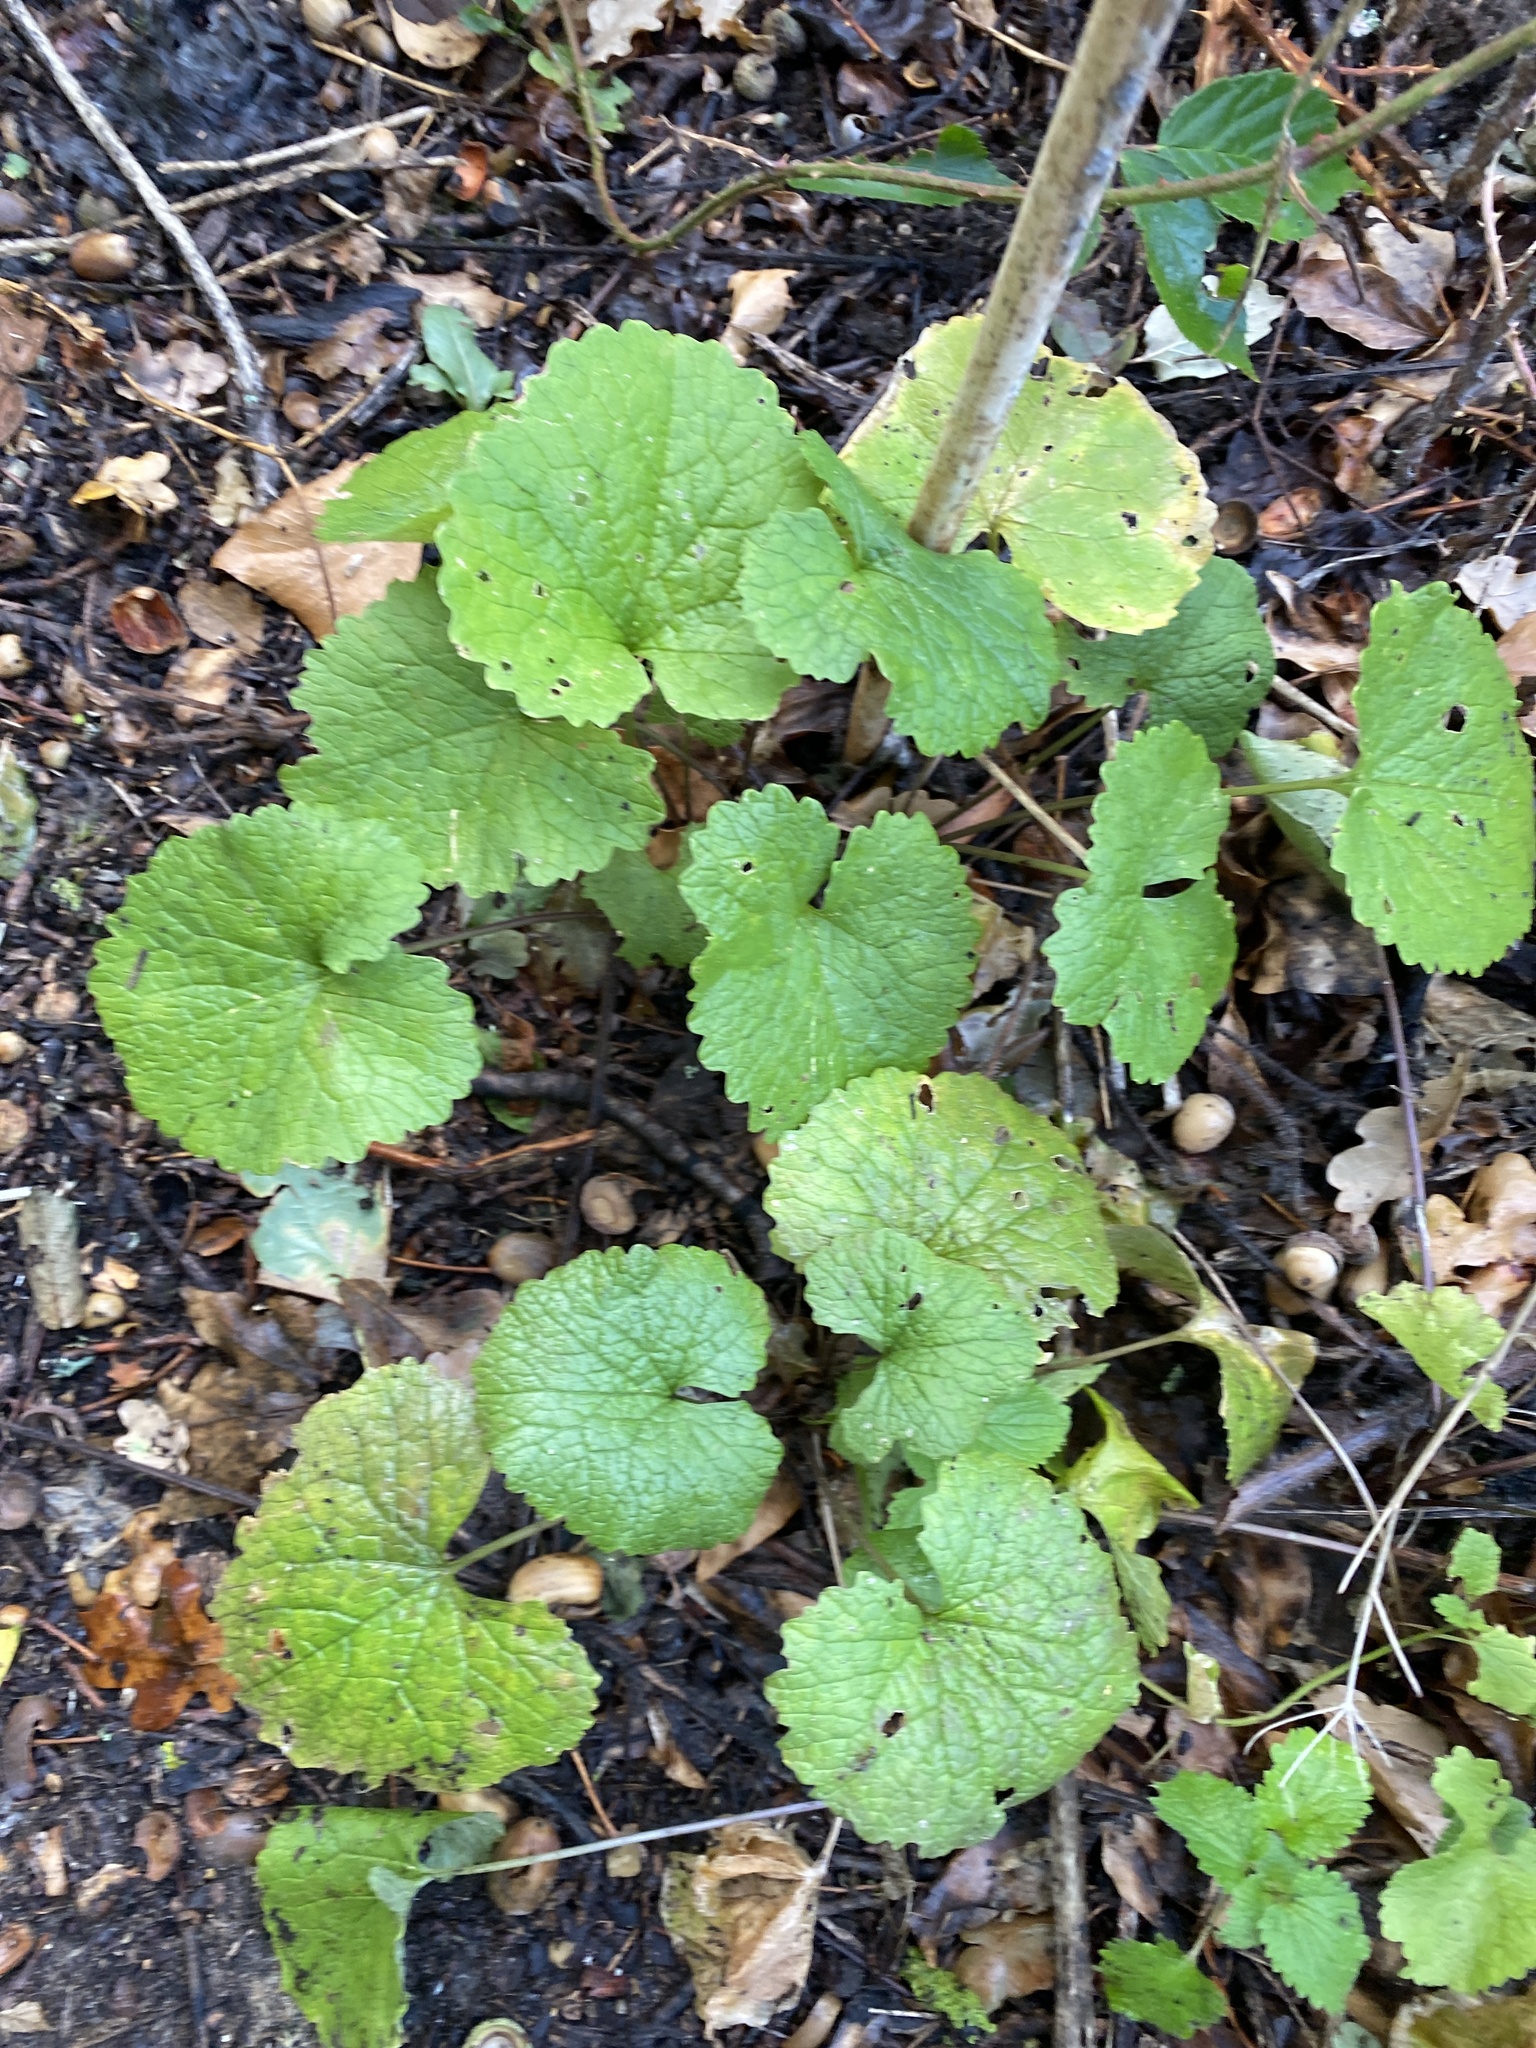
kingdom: Plantae
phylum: Tracheophyta
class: Magnoliopsida
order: Brassicales
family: Brassicaceae
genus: Alliaria
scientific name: Alliaria petiolata
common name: Garlic mustard
